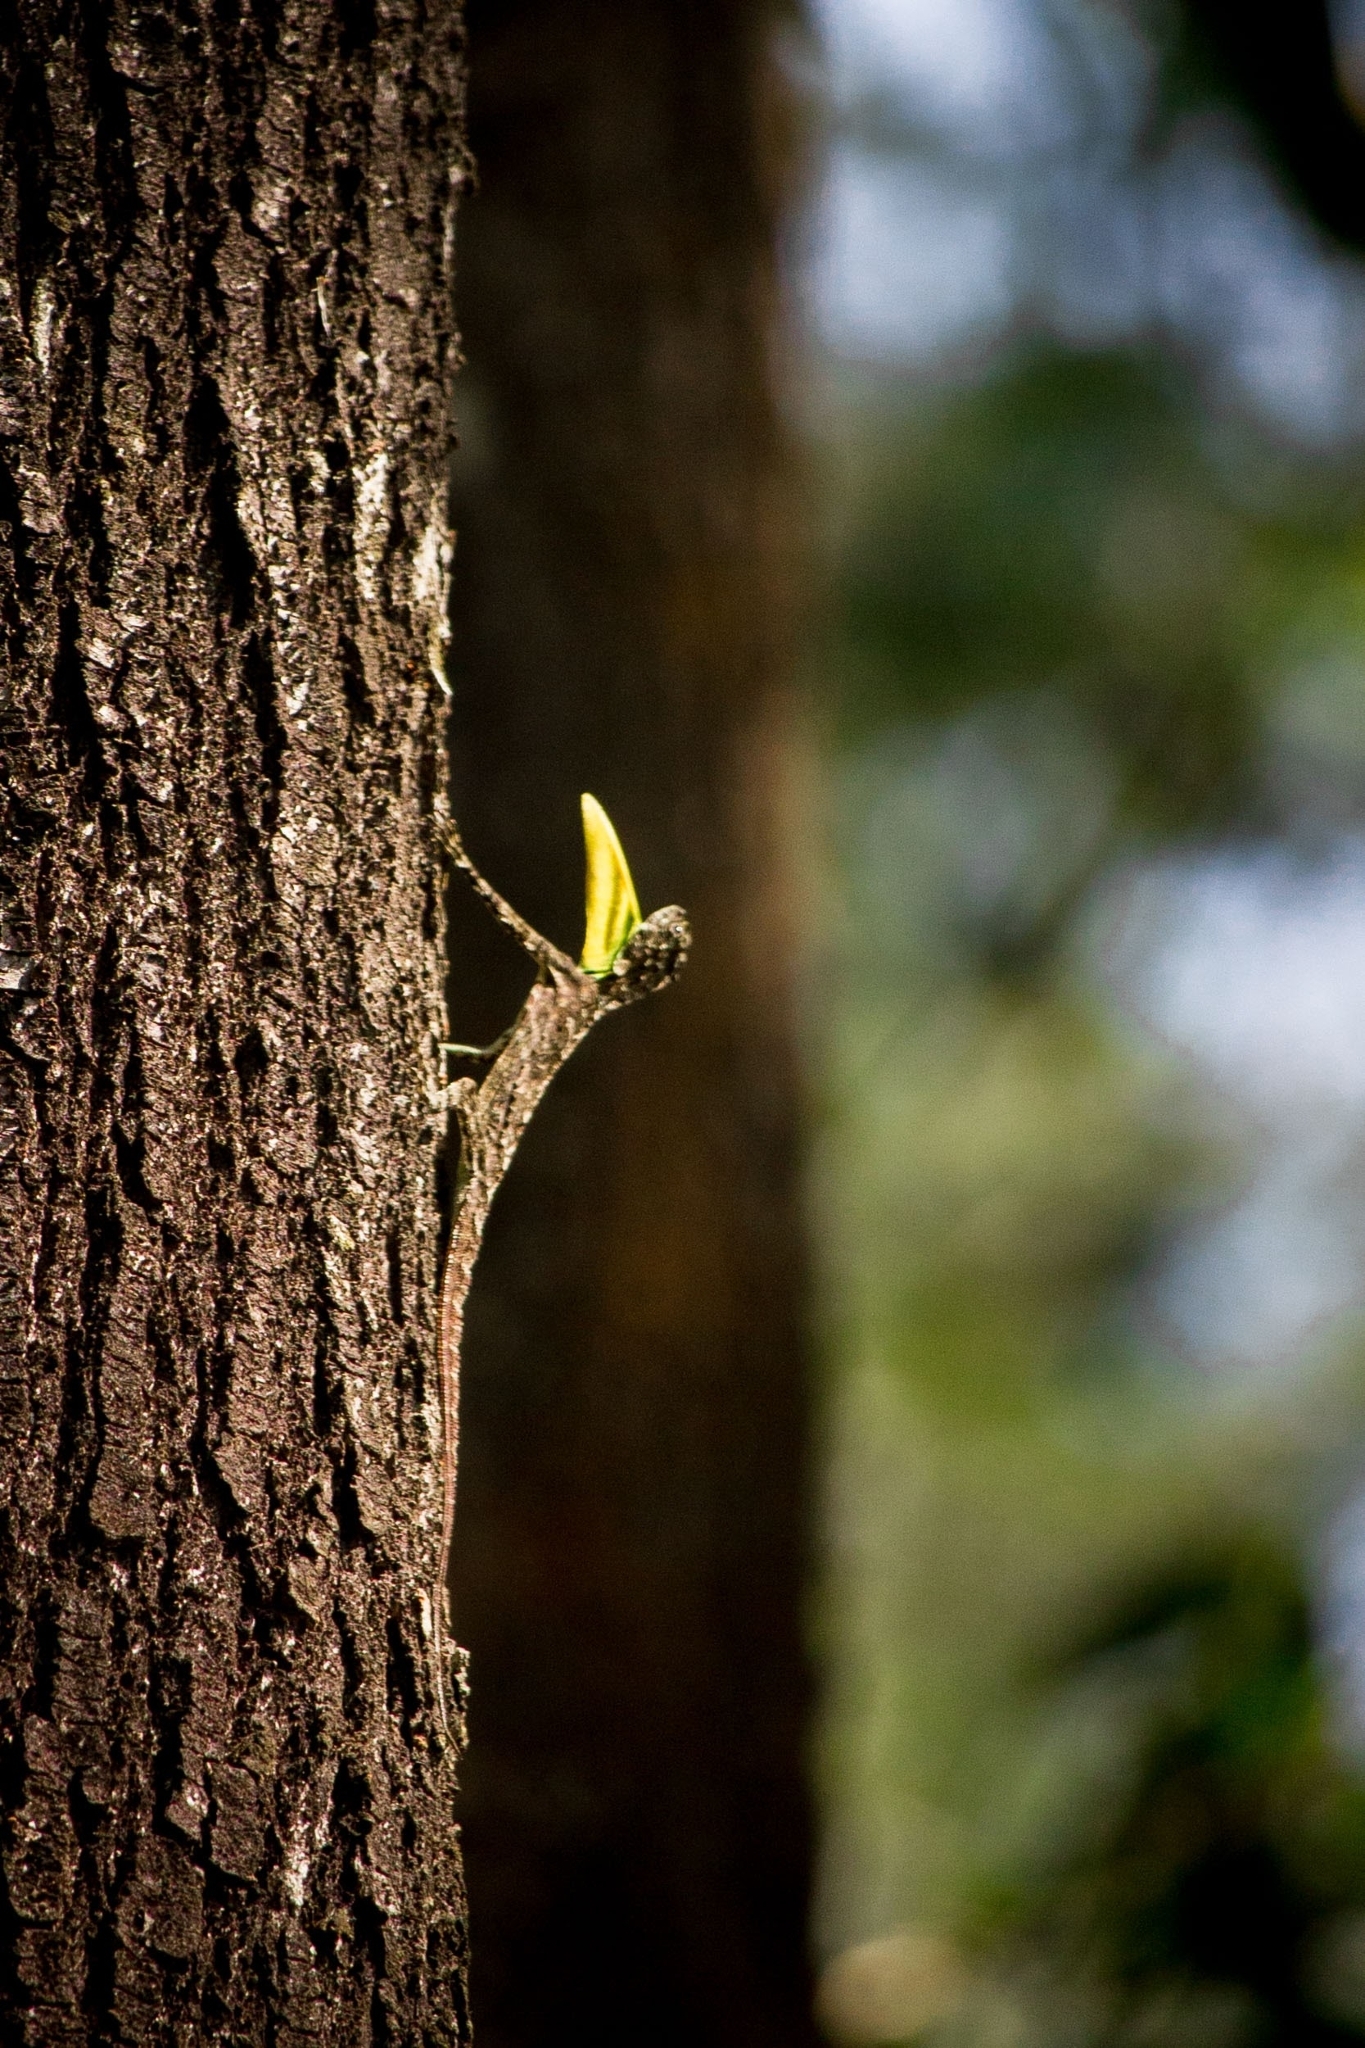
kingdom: Animalia
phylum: Chordata
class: Squamata
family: Agamidae
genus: Draco
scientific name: Draco dussumieri
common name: Southern flying lizard
